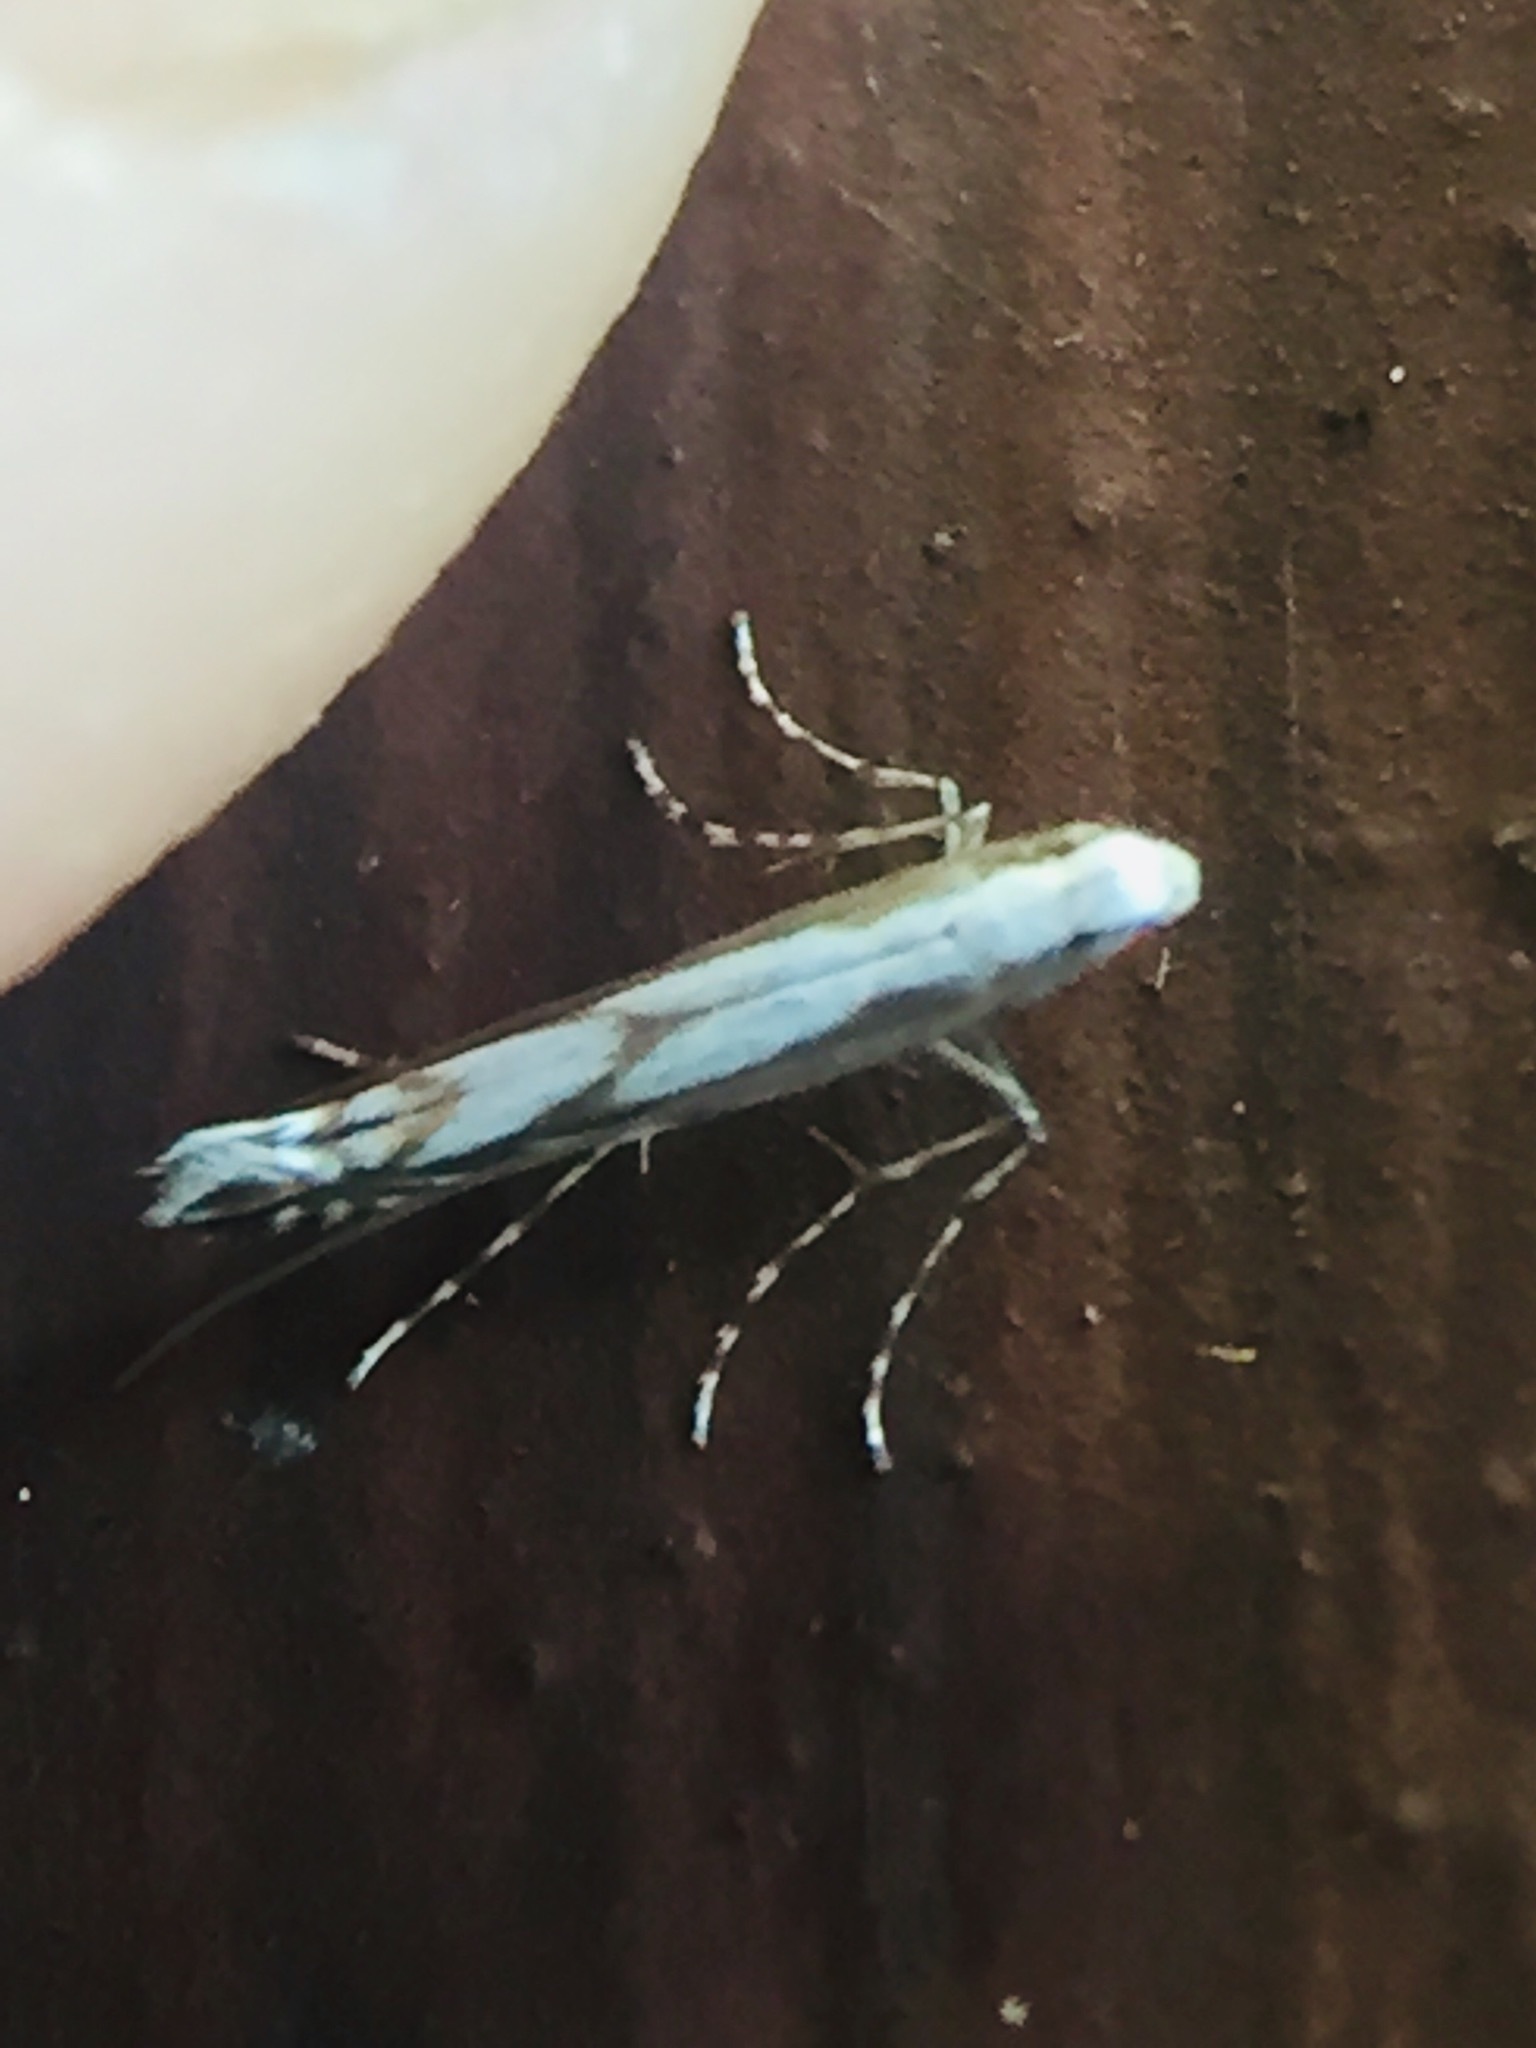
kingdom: Animalia
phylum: Arthropoda
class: Insecta
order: Lepidoptera
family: Gracillariidae
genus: Acrocercops
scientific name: Acrocercops leucotoma
